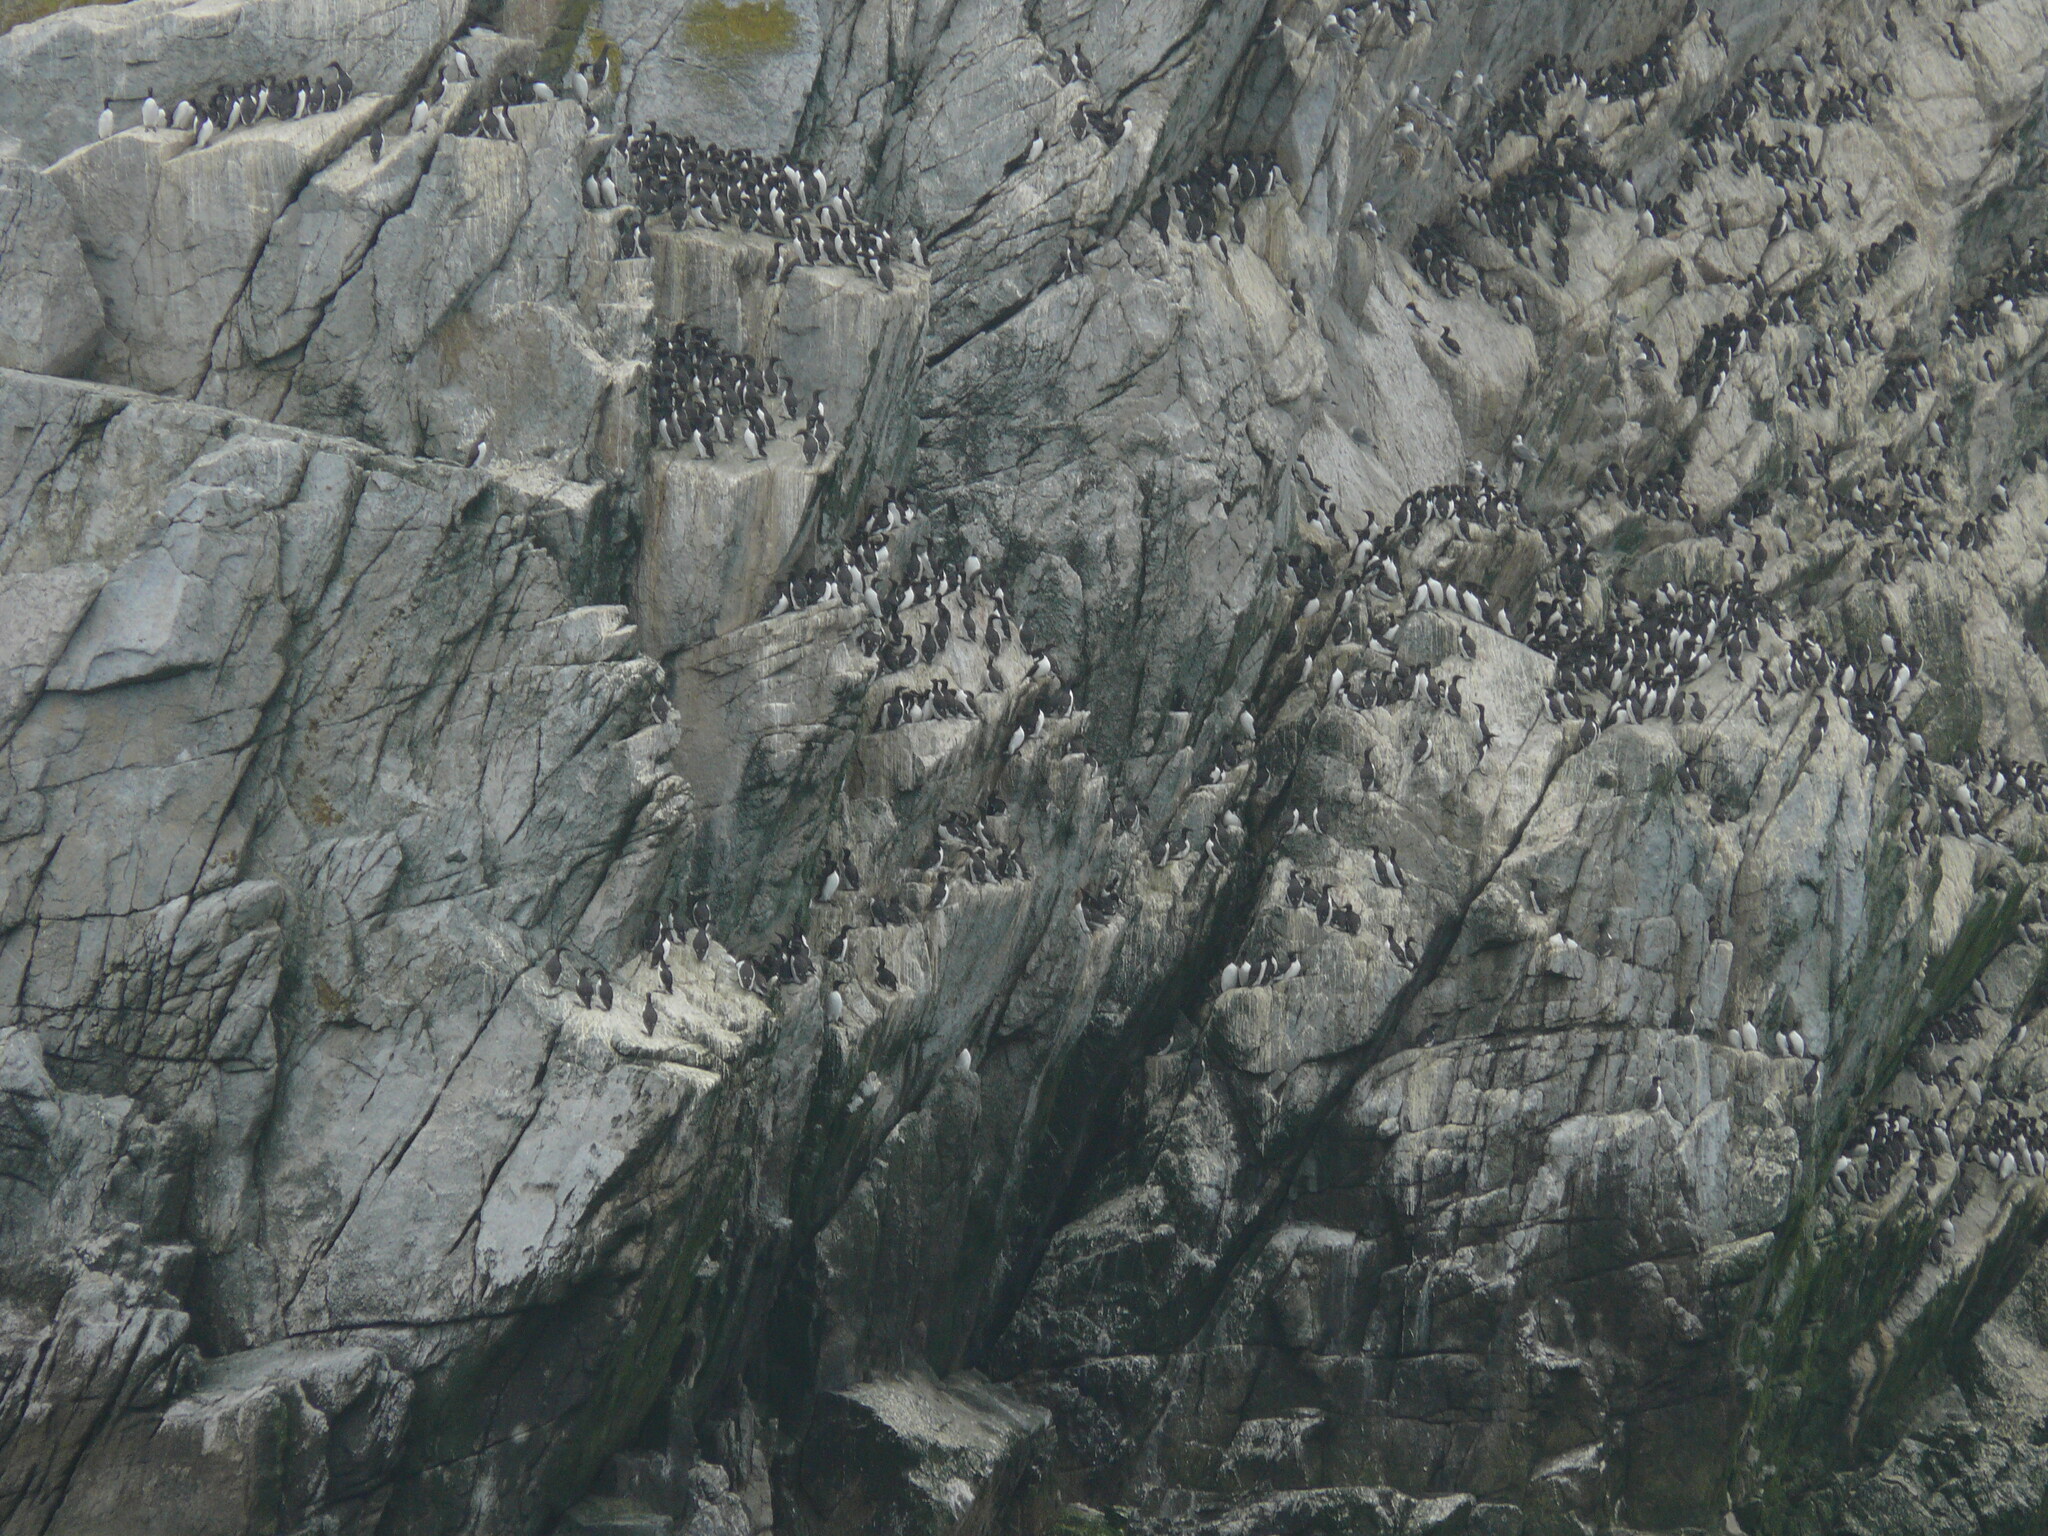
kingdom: Animalia
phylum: Chordata
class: Aves
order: Charadriiformes
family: Alcidae
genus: Uria
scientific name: Uria aalge
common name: Common murre
